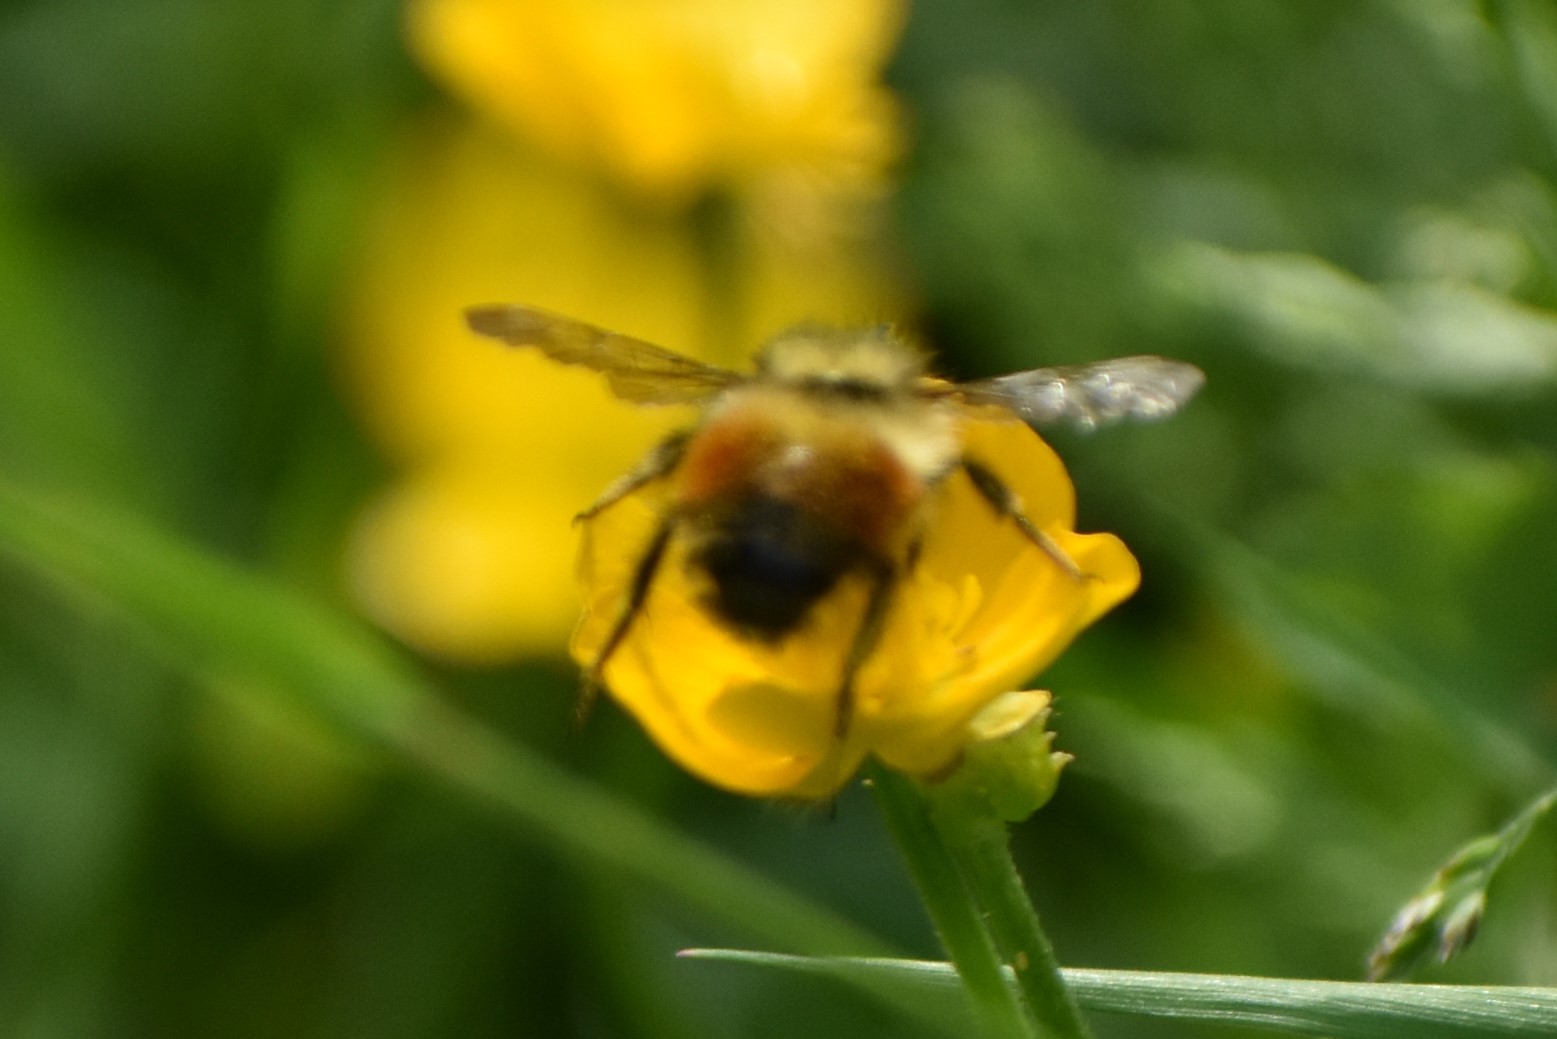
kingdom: Animalia
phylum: Arthropoda
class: Insecta
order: Hymenoptera
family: Apidae
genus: Bombus
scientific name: Bombus melanopygus
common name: Black tail bumble bee
